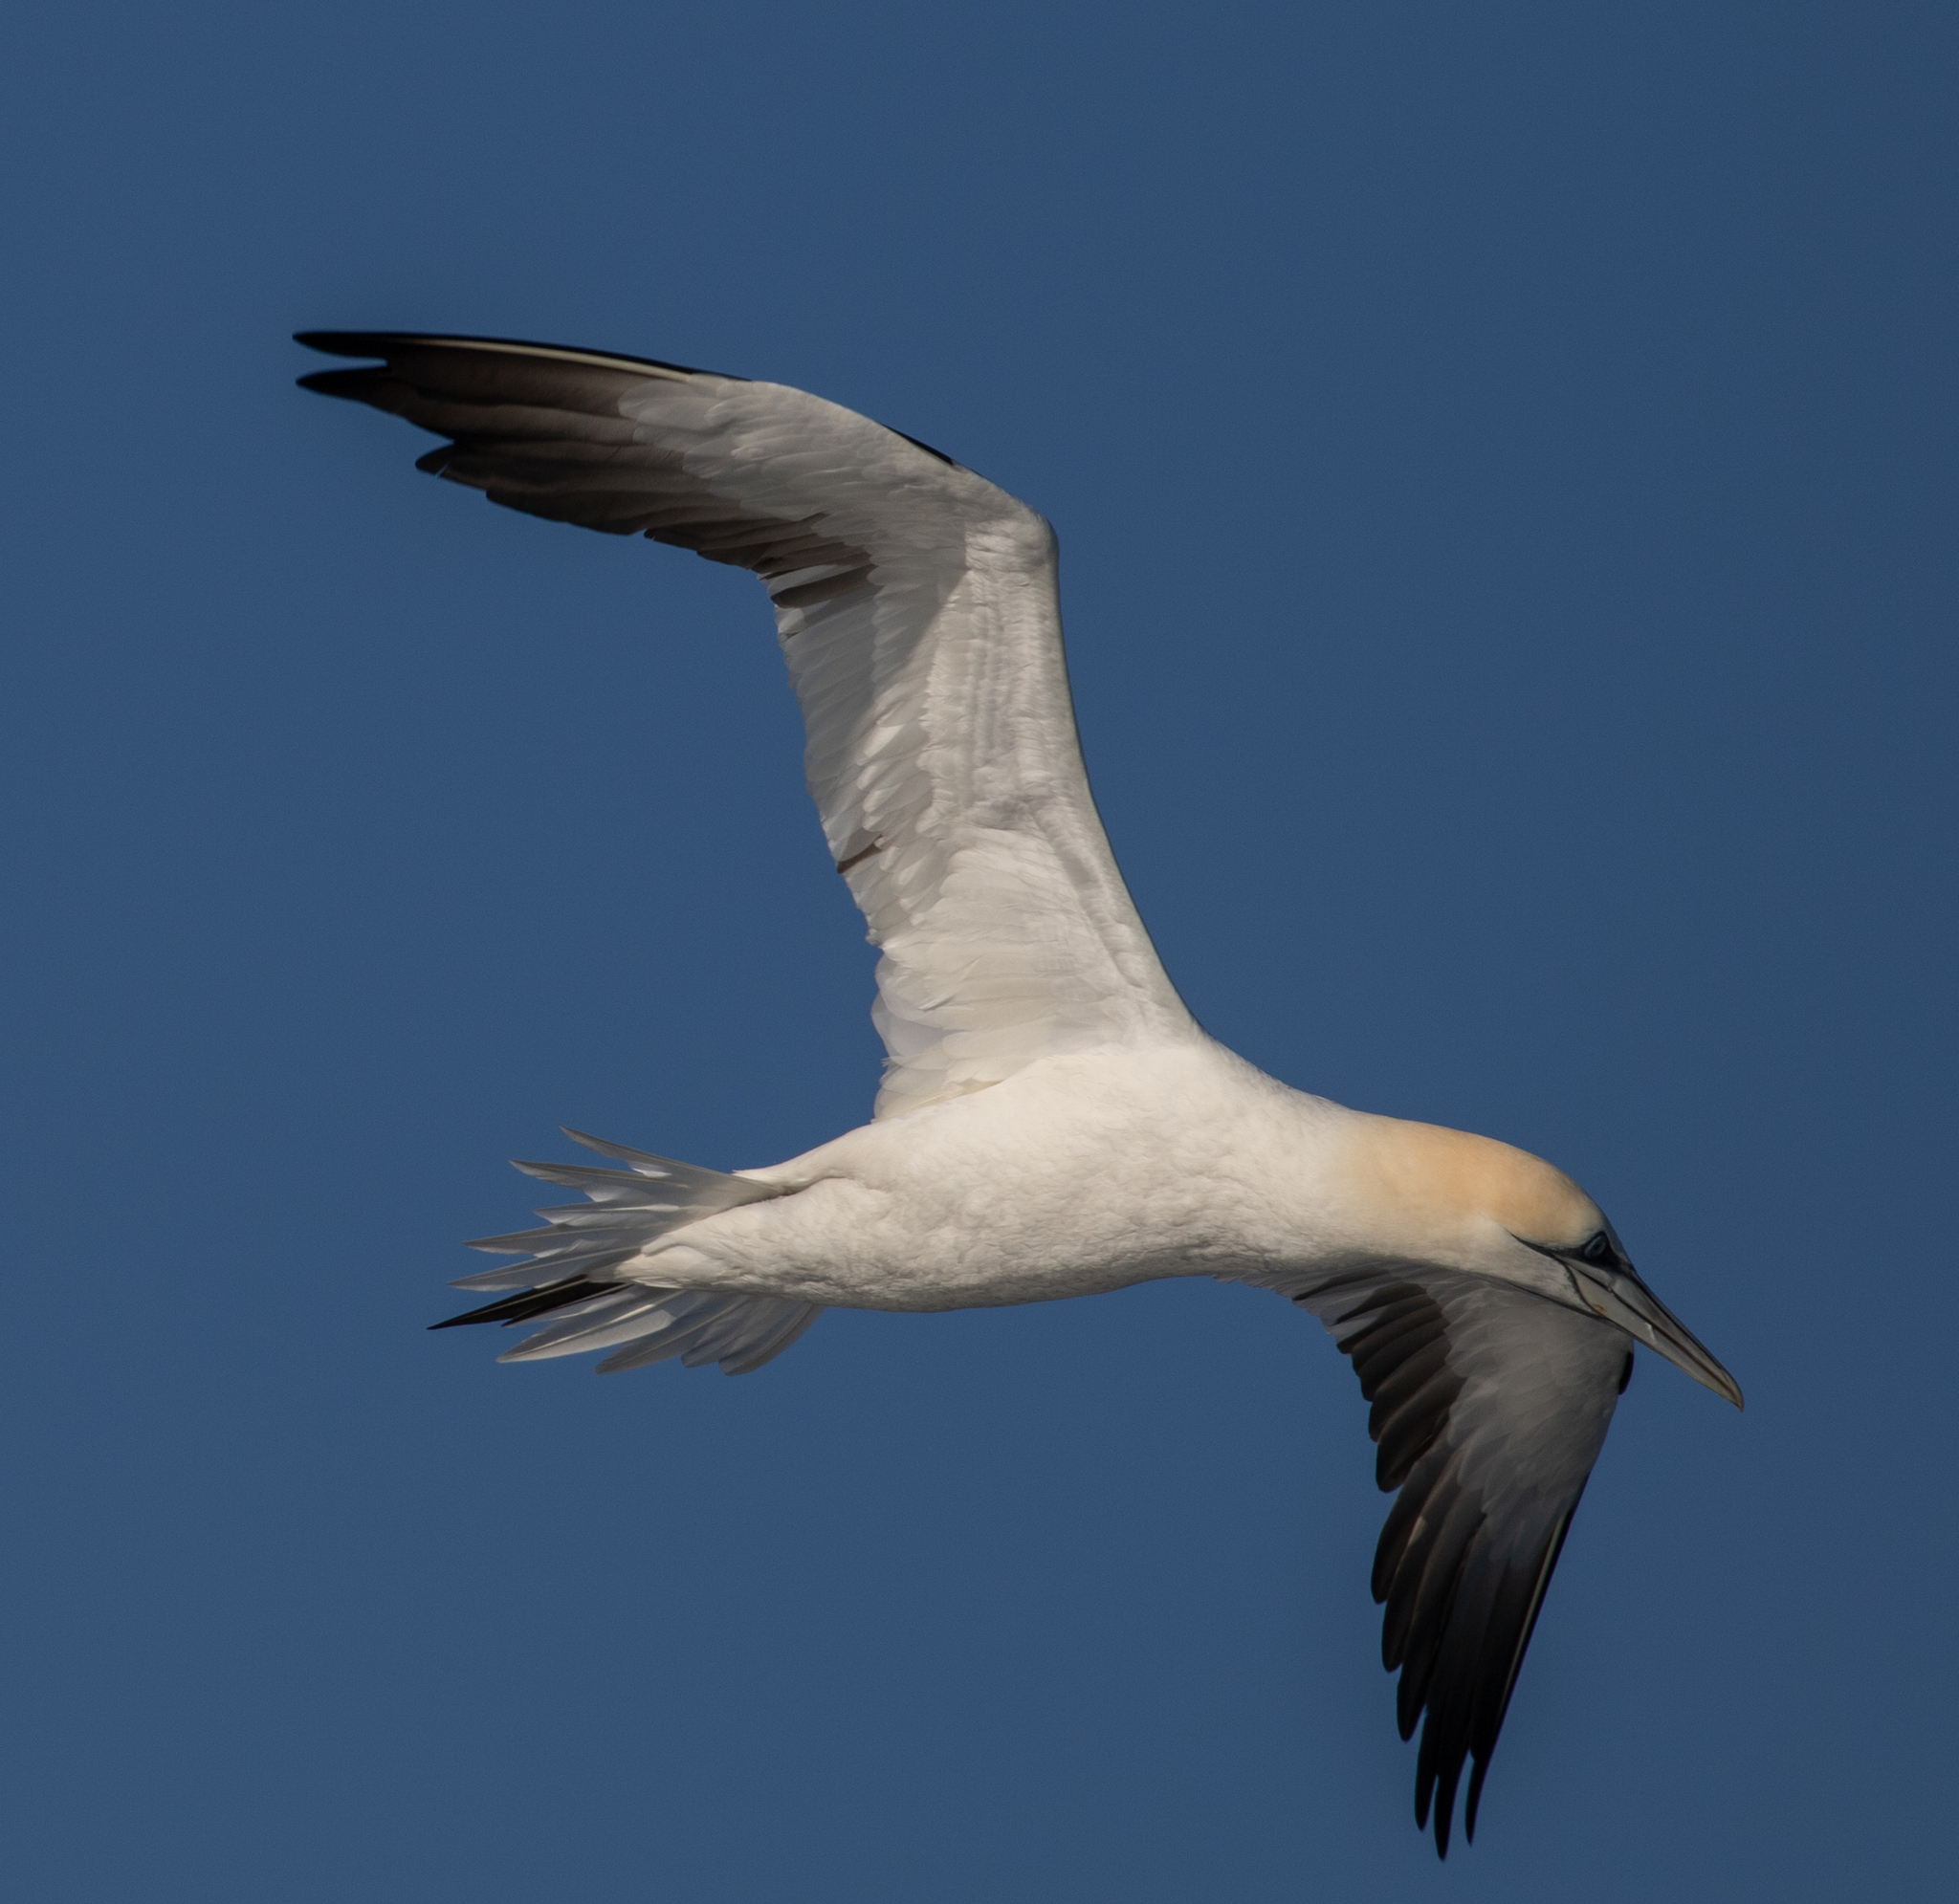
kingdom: Animalia
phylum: Chordata
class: Aves
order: Suliformes
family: Sulidae
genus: Morus
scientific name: Morus bassanus
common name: Northern gannet
